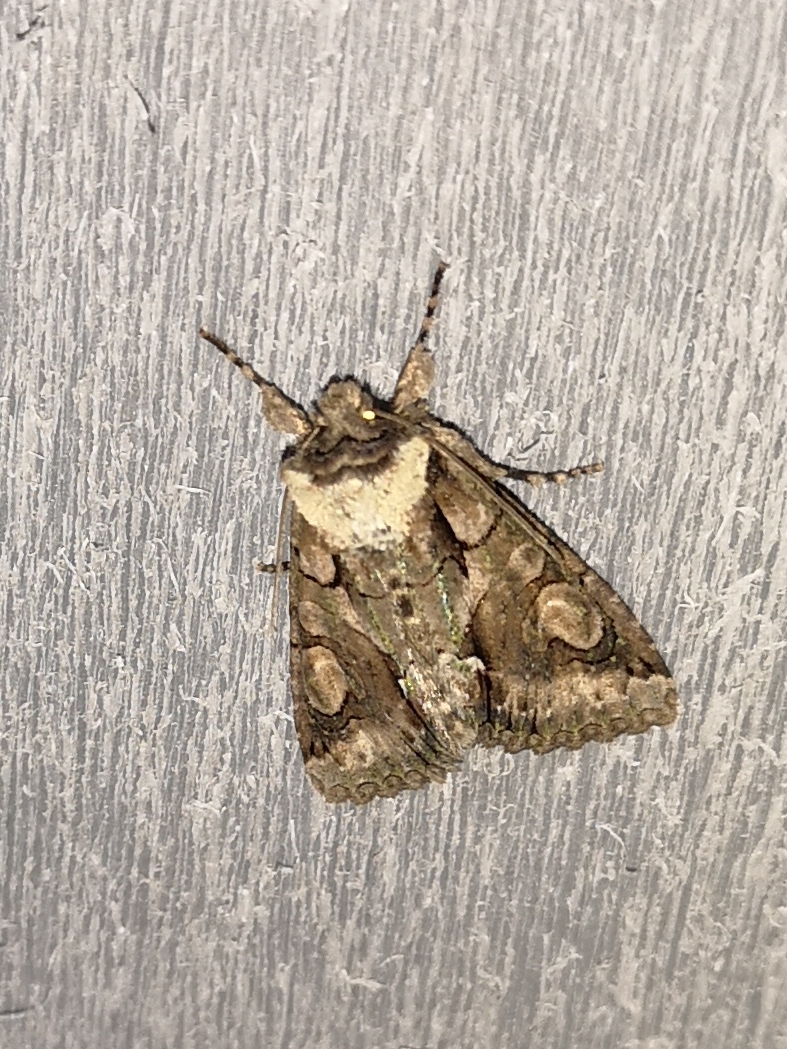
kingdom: Animalia
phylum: Arthropoda
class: Insecta
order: Lepidoptera
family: Noctuidae
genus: Allophyes
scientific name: Allophyes oxyacanthae
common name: Green-brindled crescent
